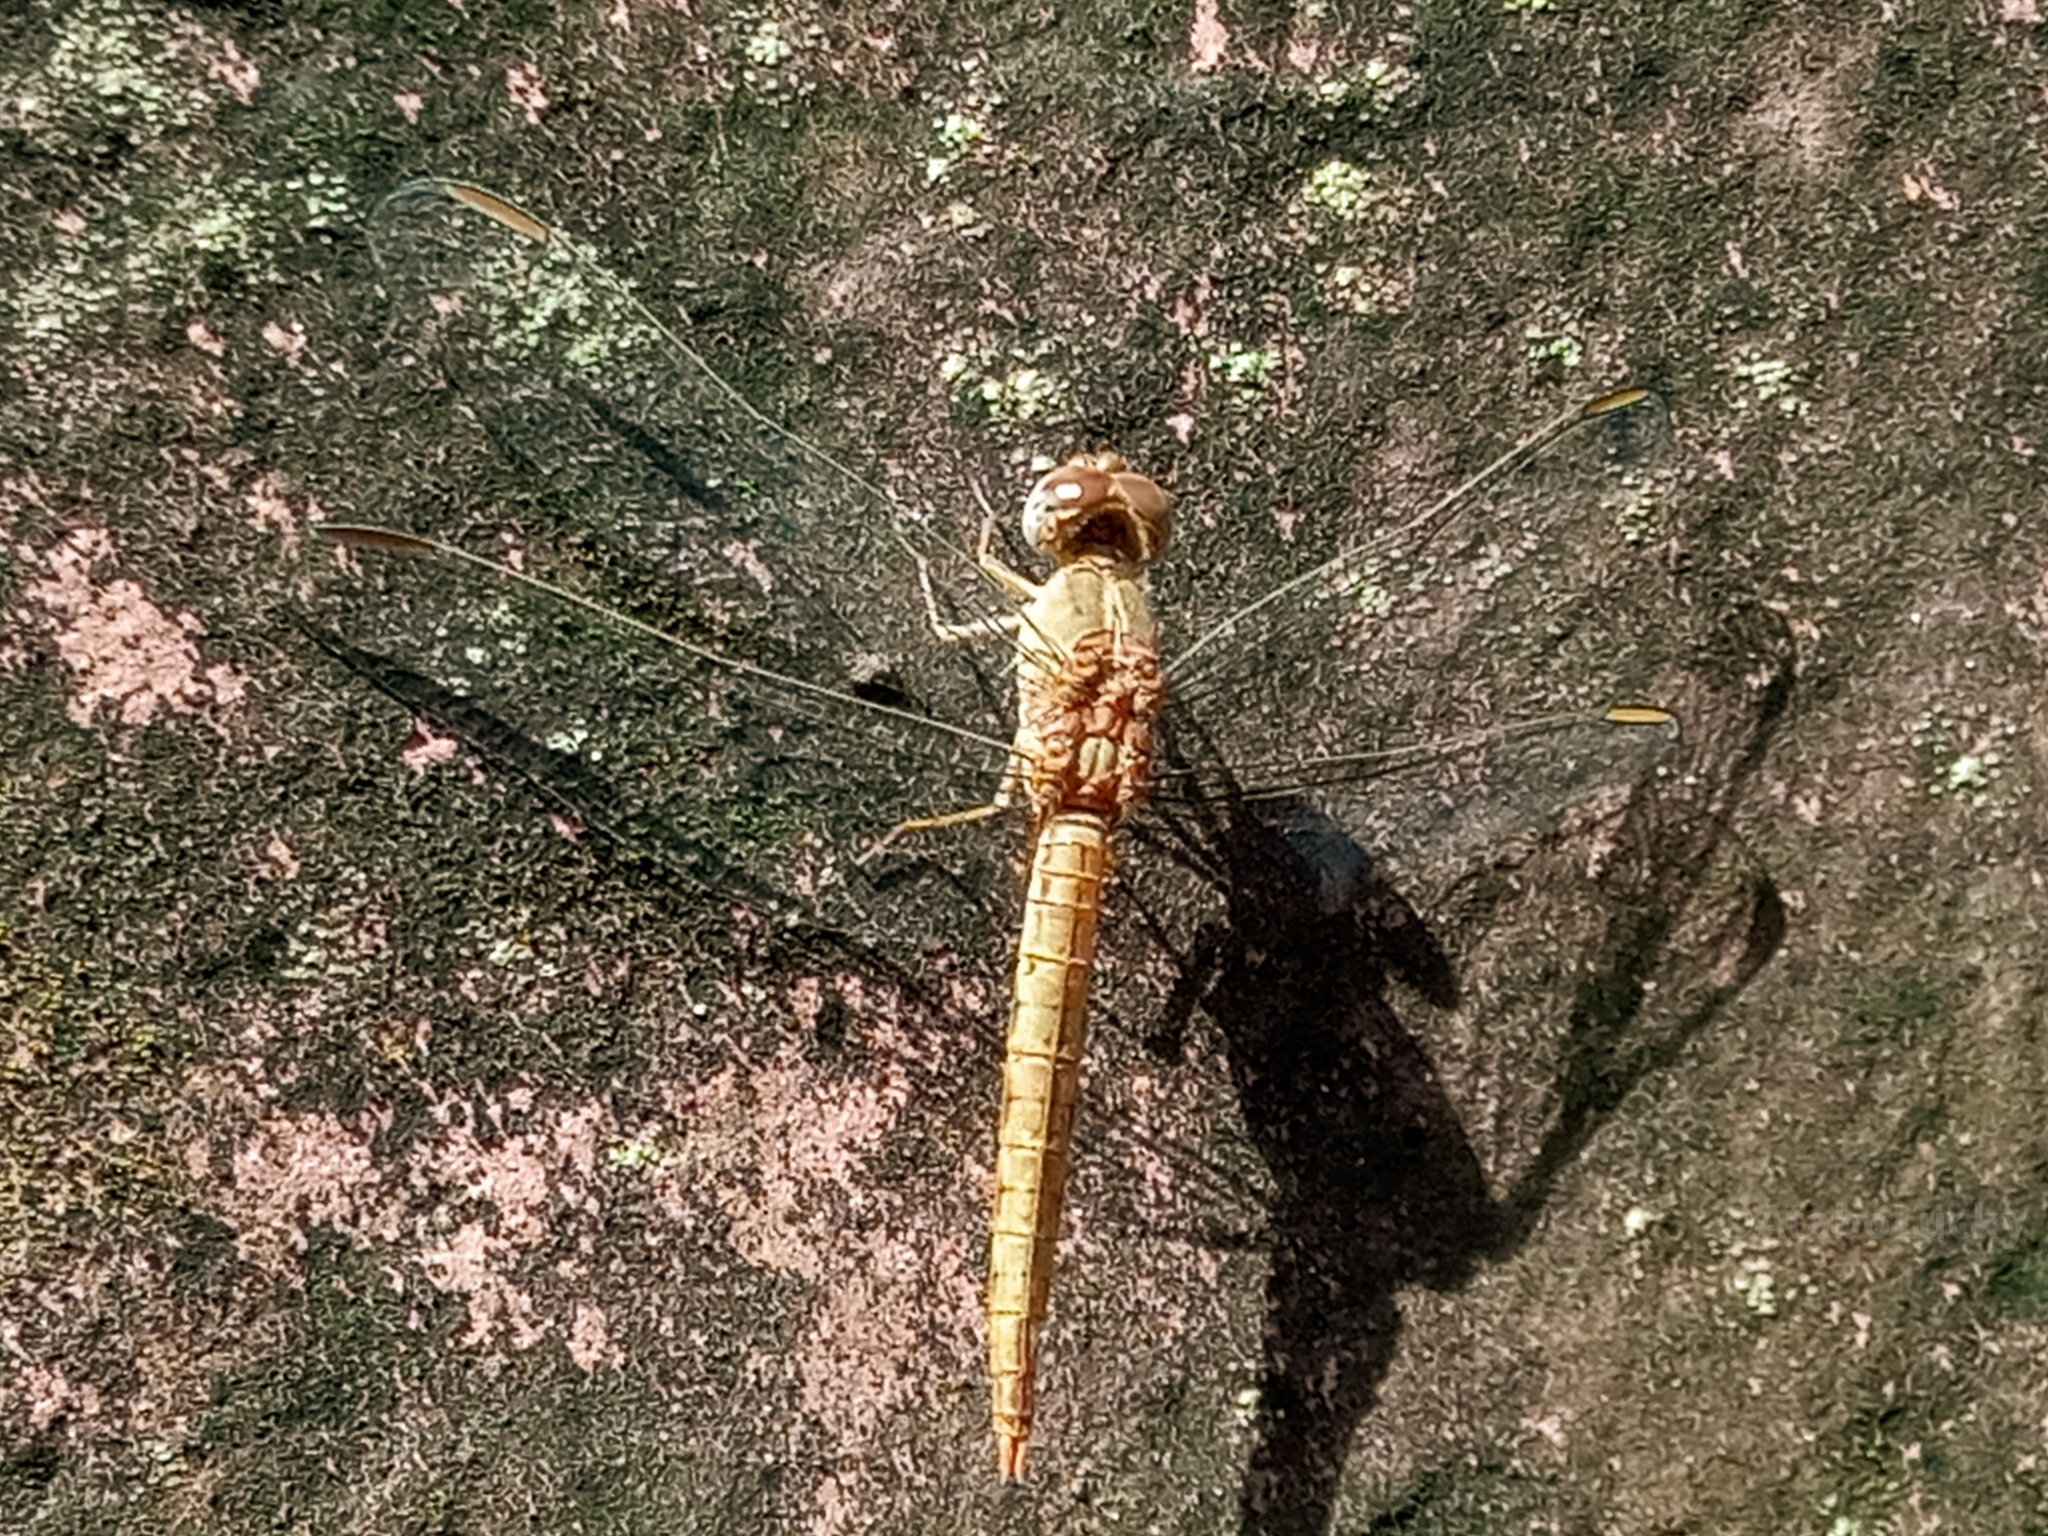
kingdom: Animalia
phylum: Arthropoda
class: Insecta
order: Odonata
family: Libellulidae
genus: Crocothemis
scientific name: Crocothemis divisa
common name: Divisa scarlet
